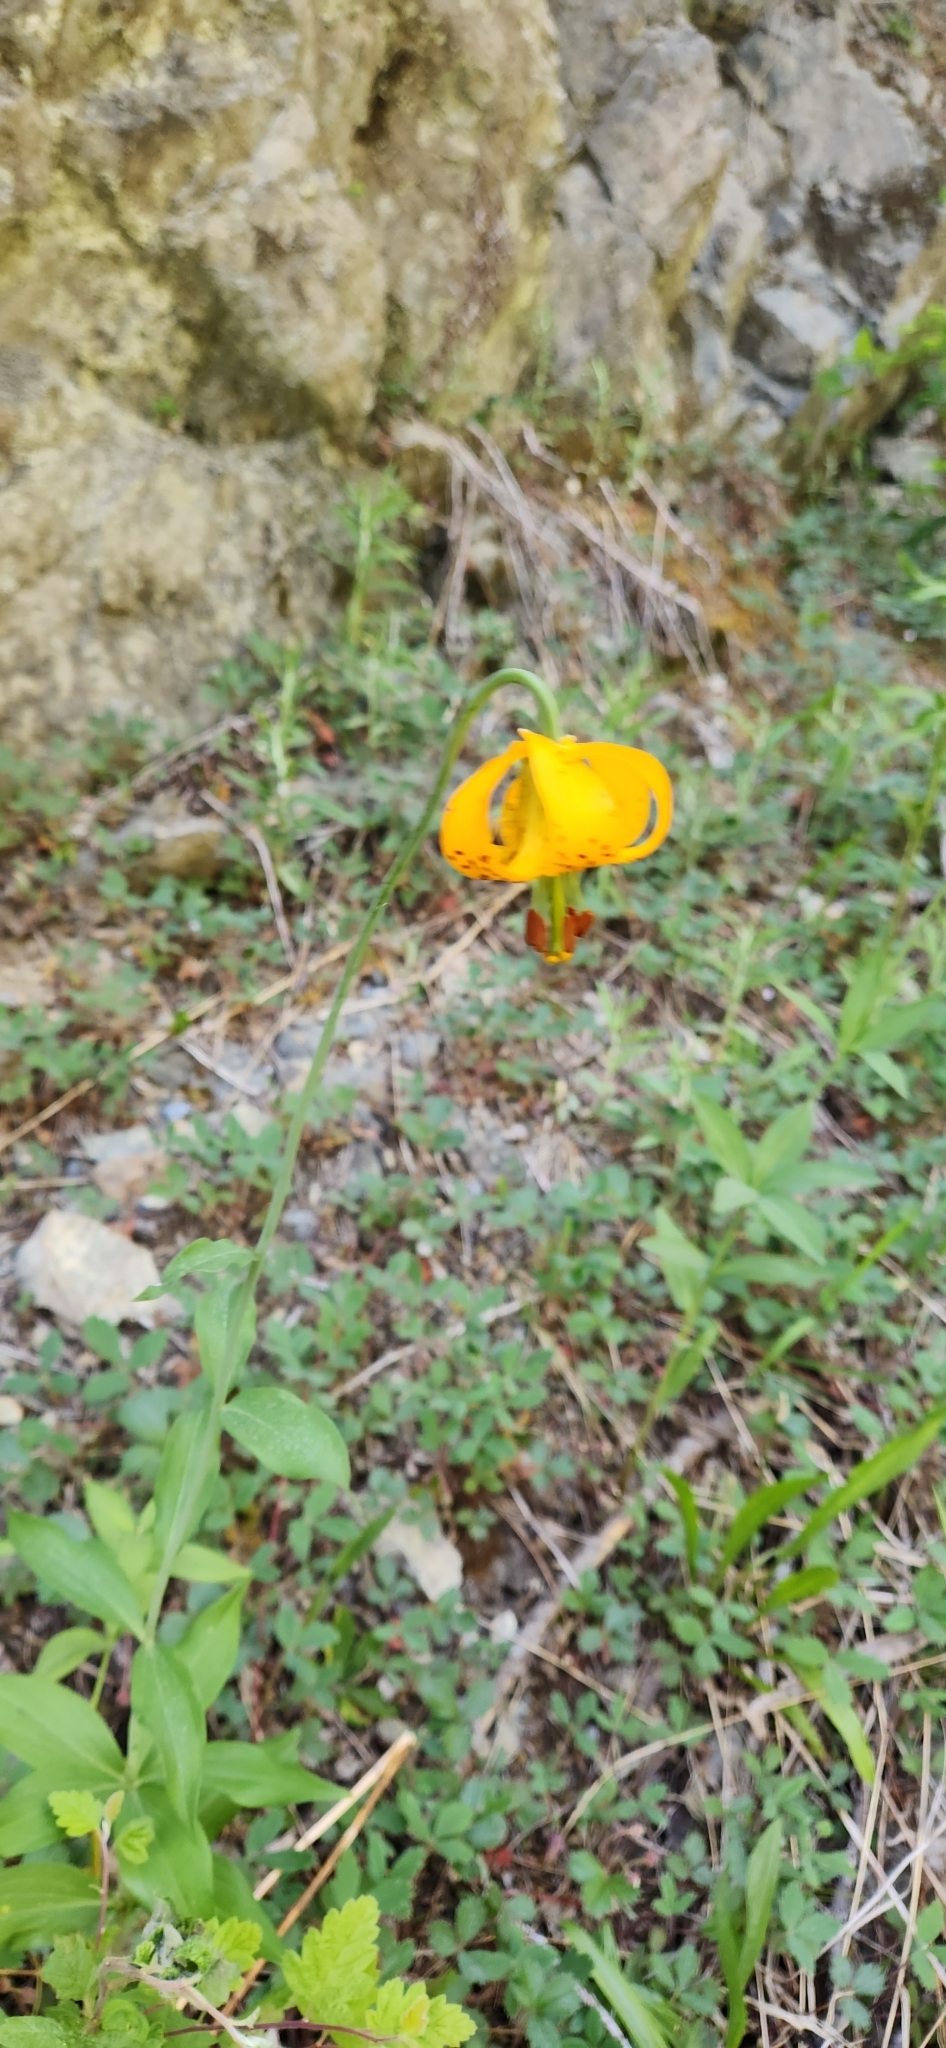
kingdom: Plantae
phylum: Tracheophyta
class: Liliopsida
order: Liliales
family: Liliaceae
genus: Lilium
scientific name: Lilium columbianum
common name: Columbia lily
